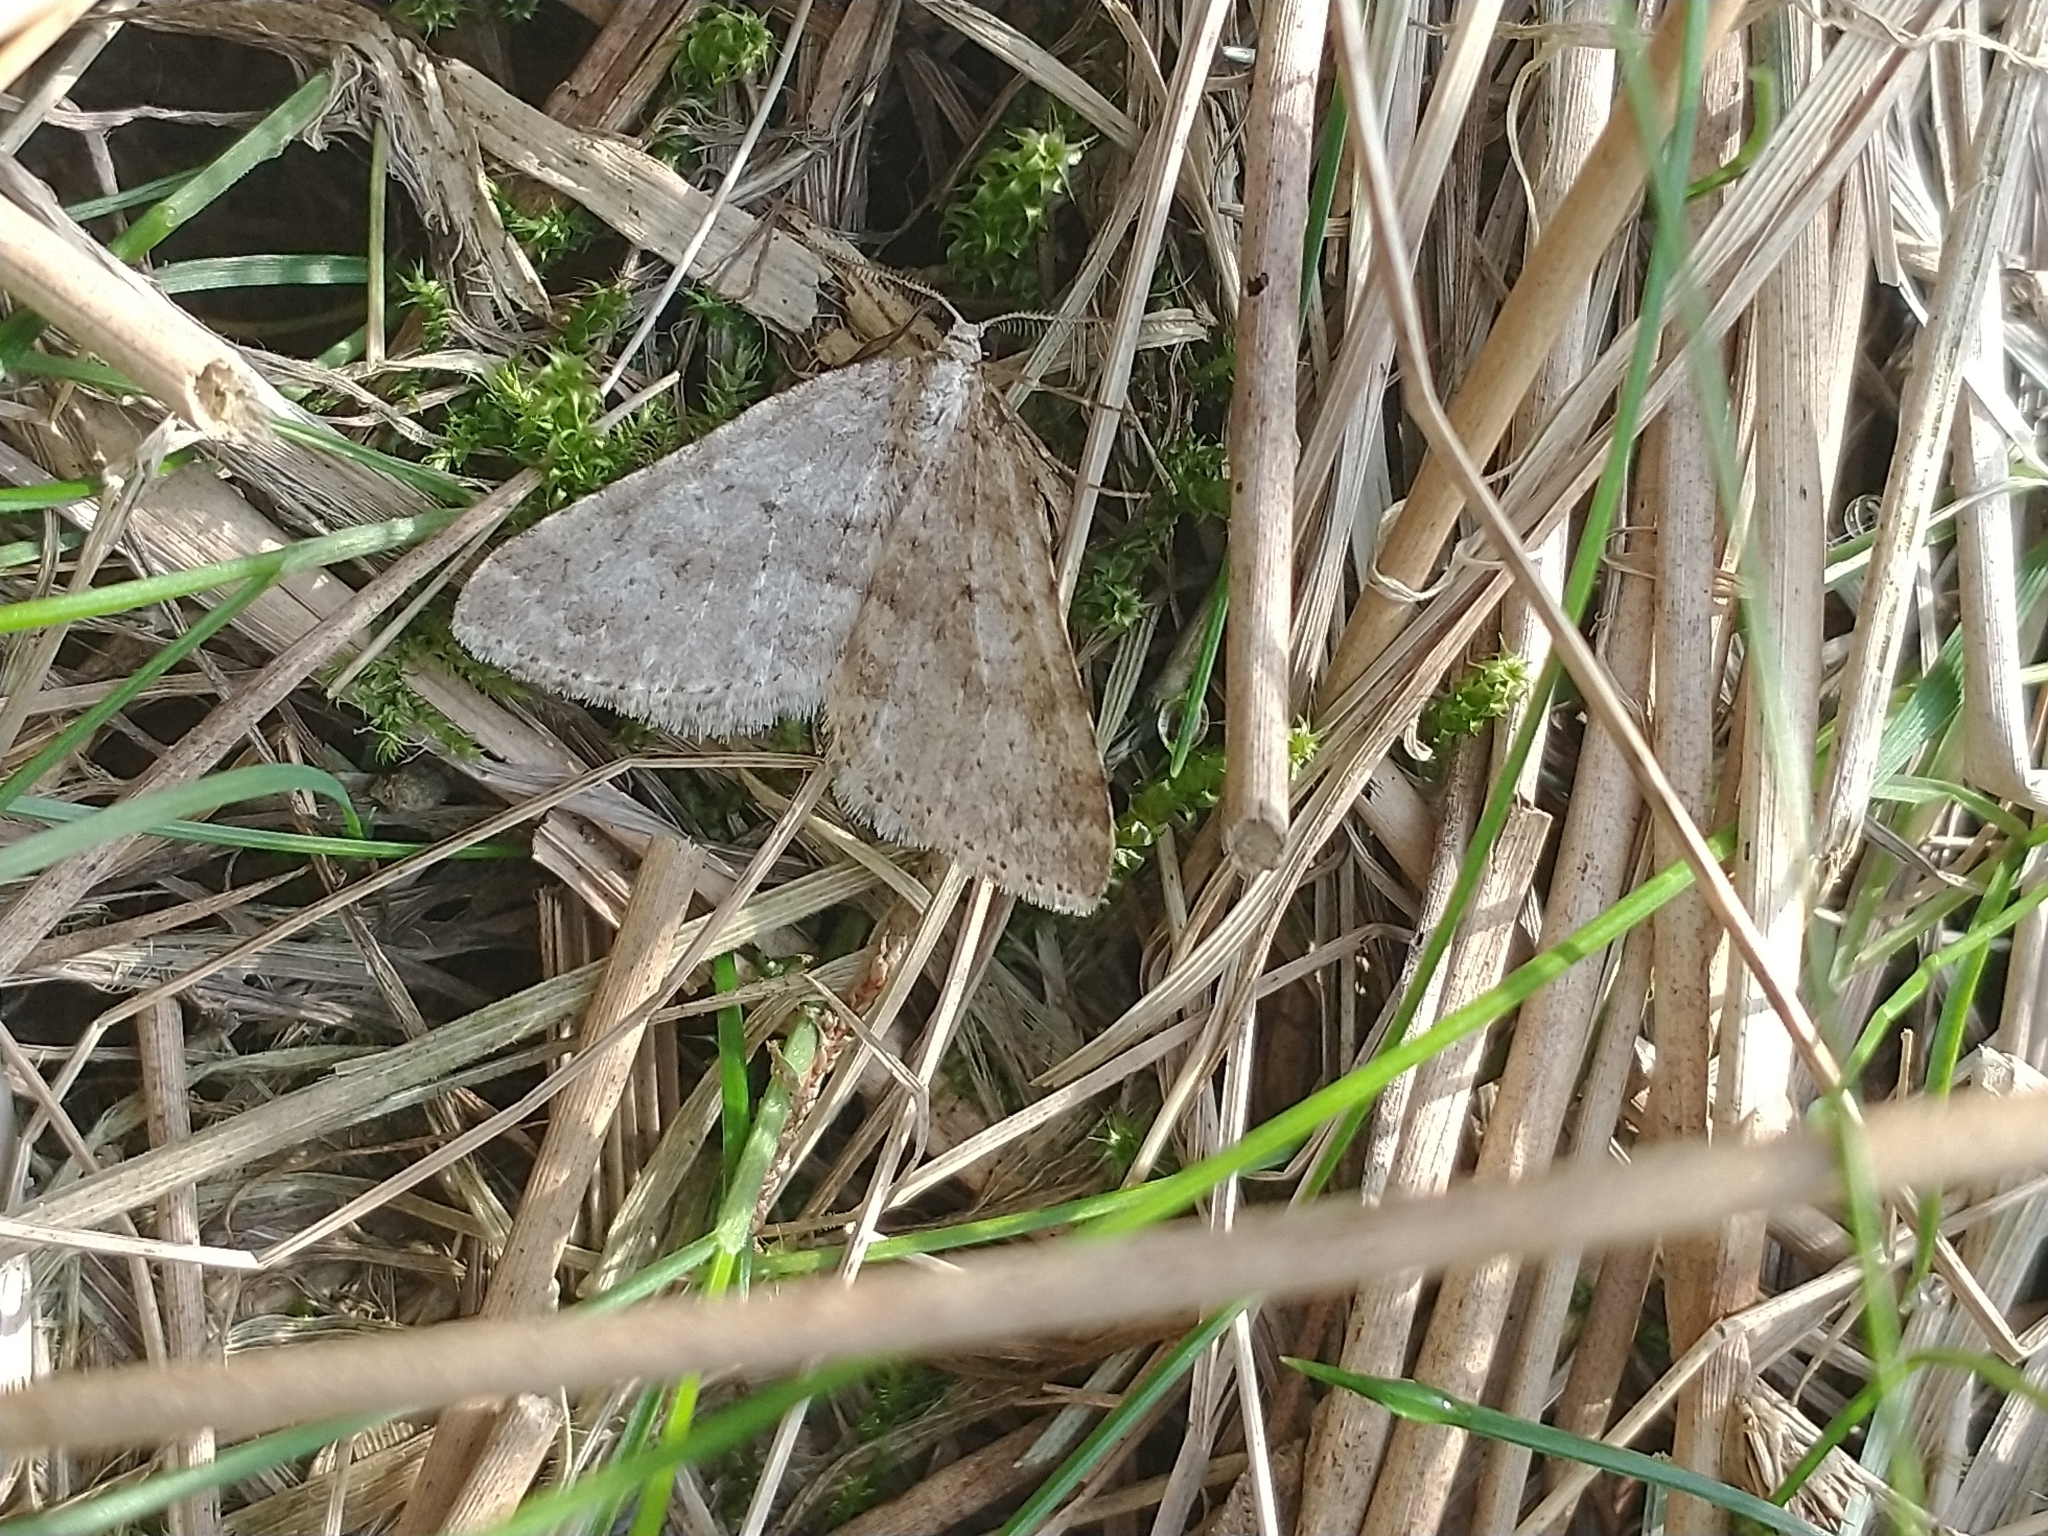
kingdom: Animalia
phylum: Arthropoda
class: Insecta
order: Lepidoptera
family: Geometridae
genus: Colostygia
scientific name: Colostygia multistrigaria
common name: Mottled grey
